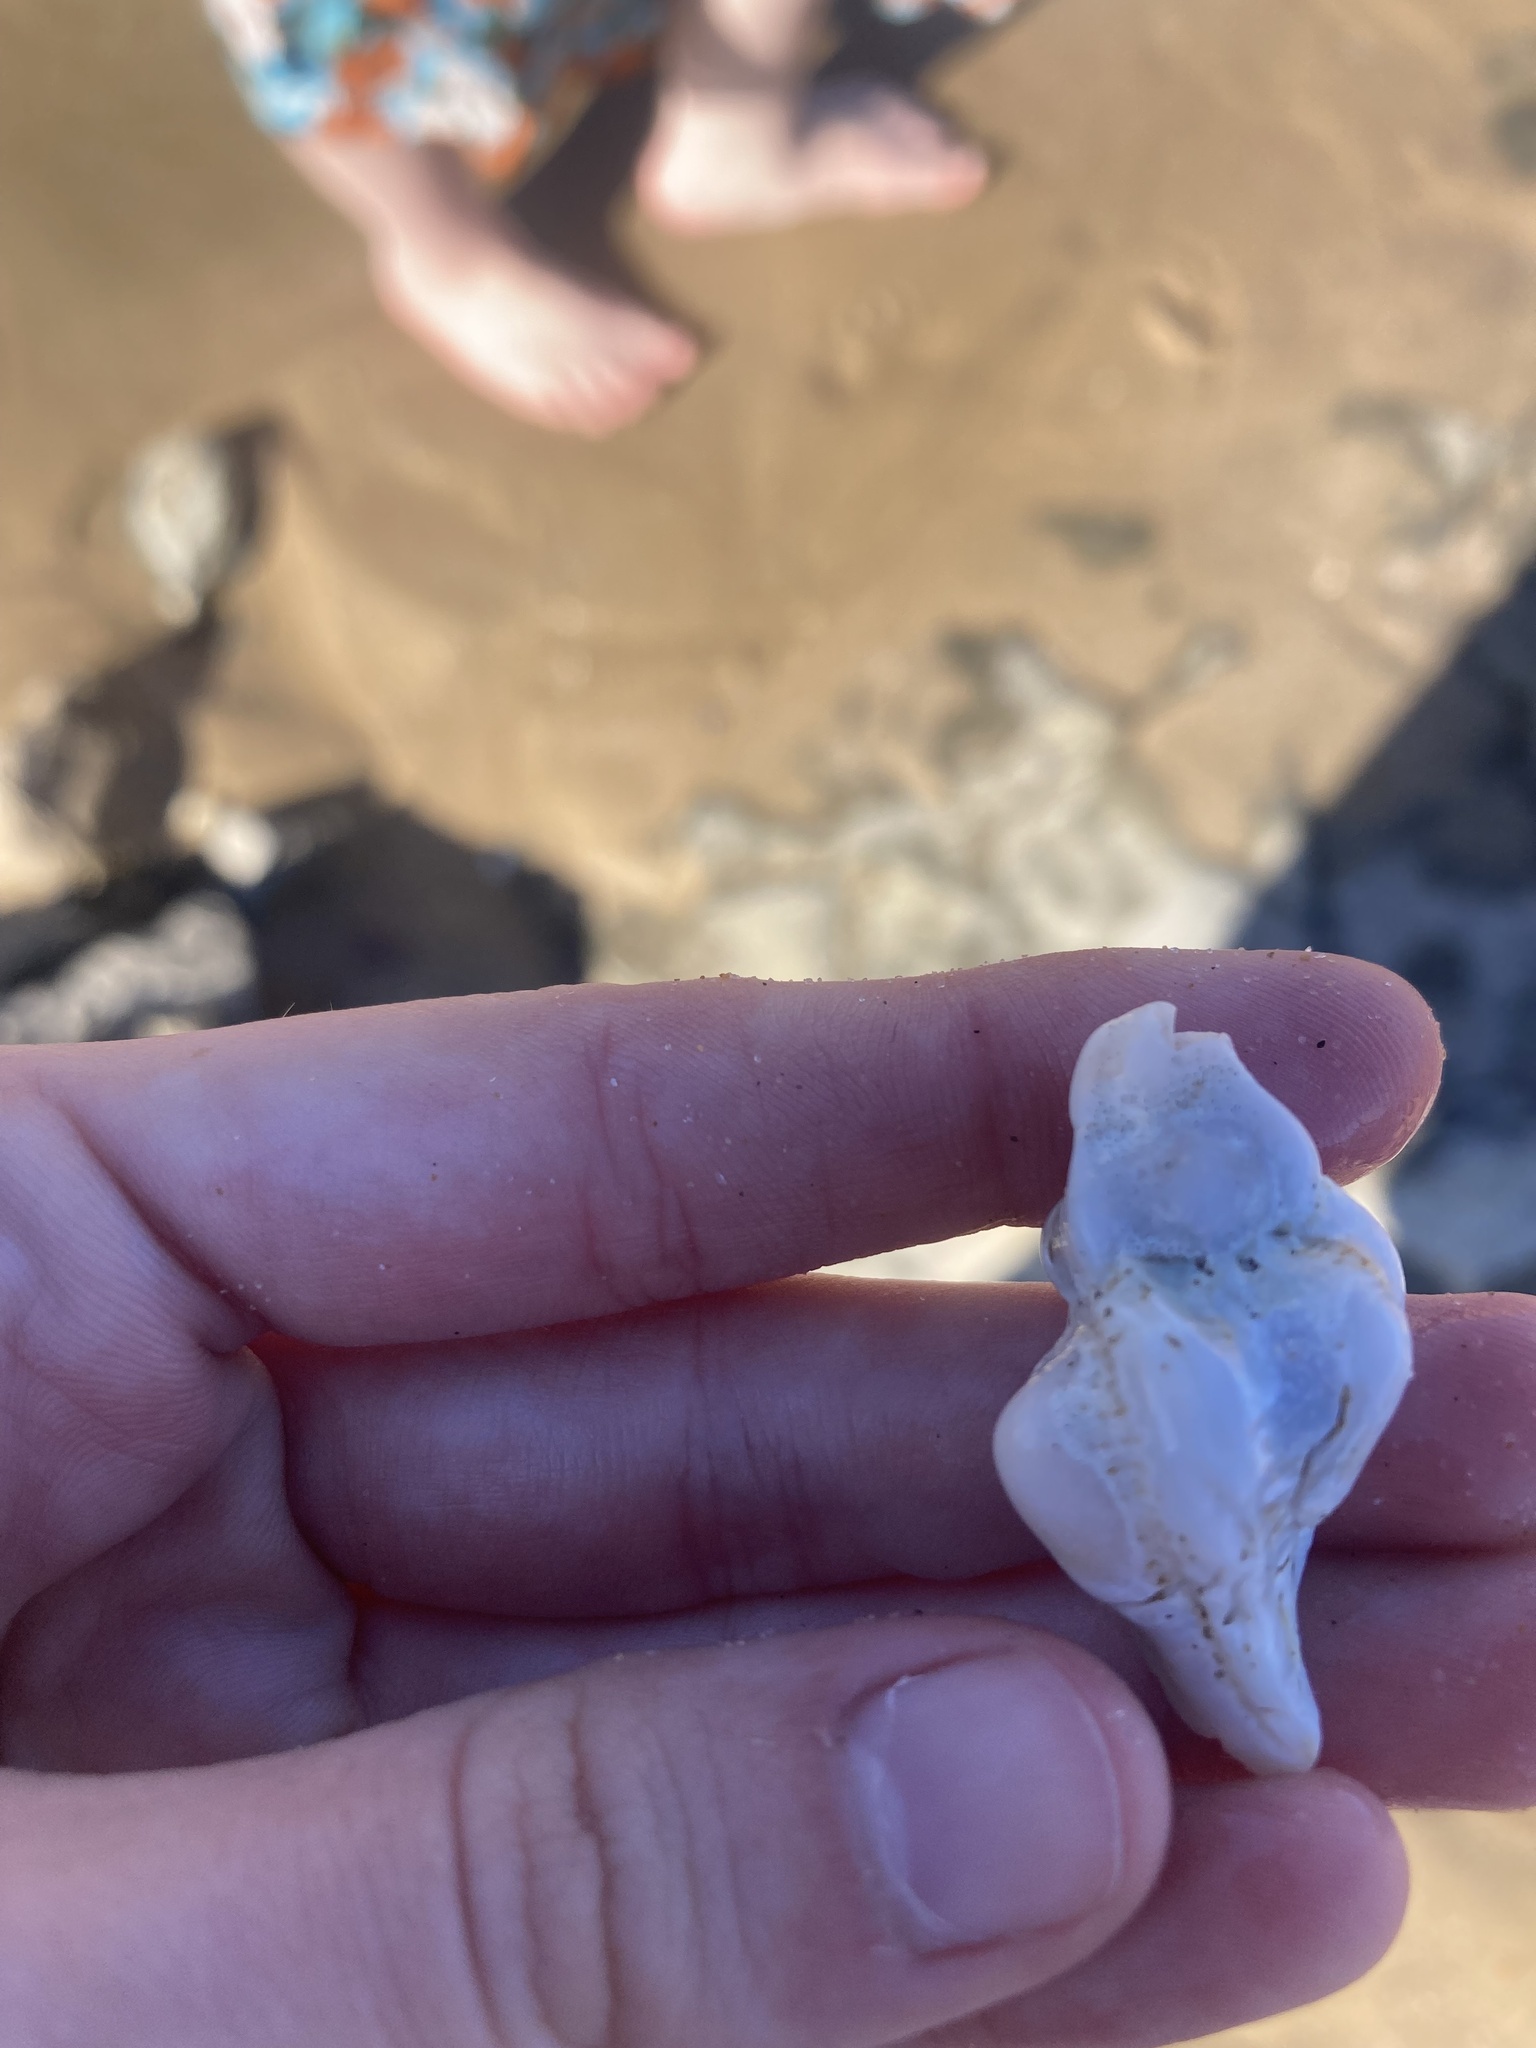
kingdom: Animalia
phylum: Mollusca
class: Gastropoda
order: Neogastropoda
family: Muricidae
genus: Pteropurpura
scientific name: Pteropurpura festiva
